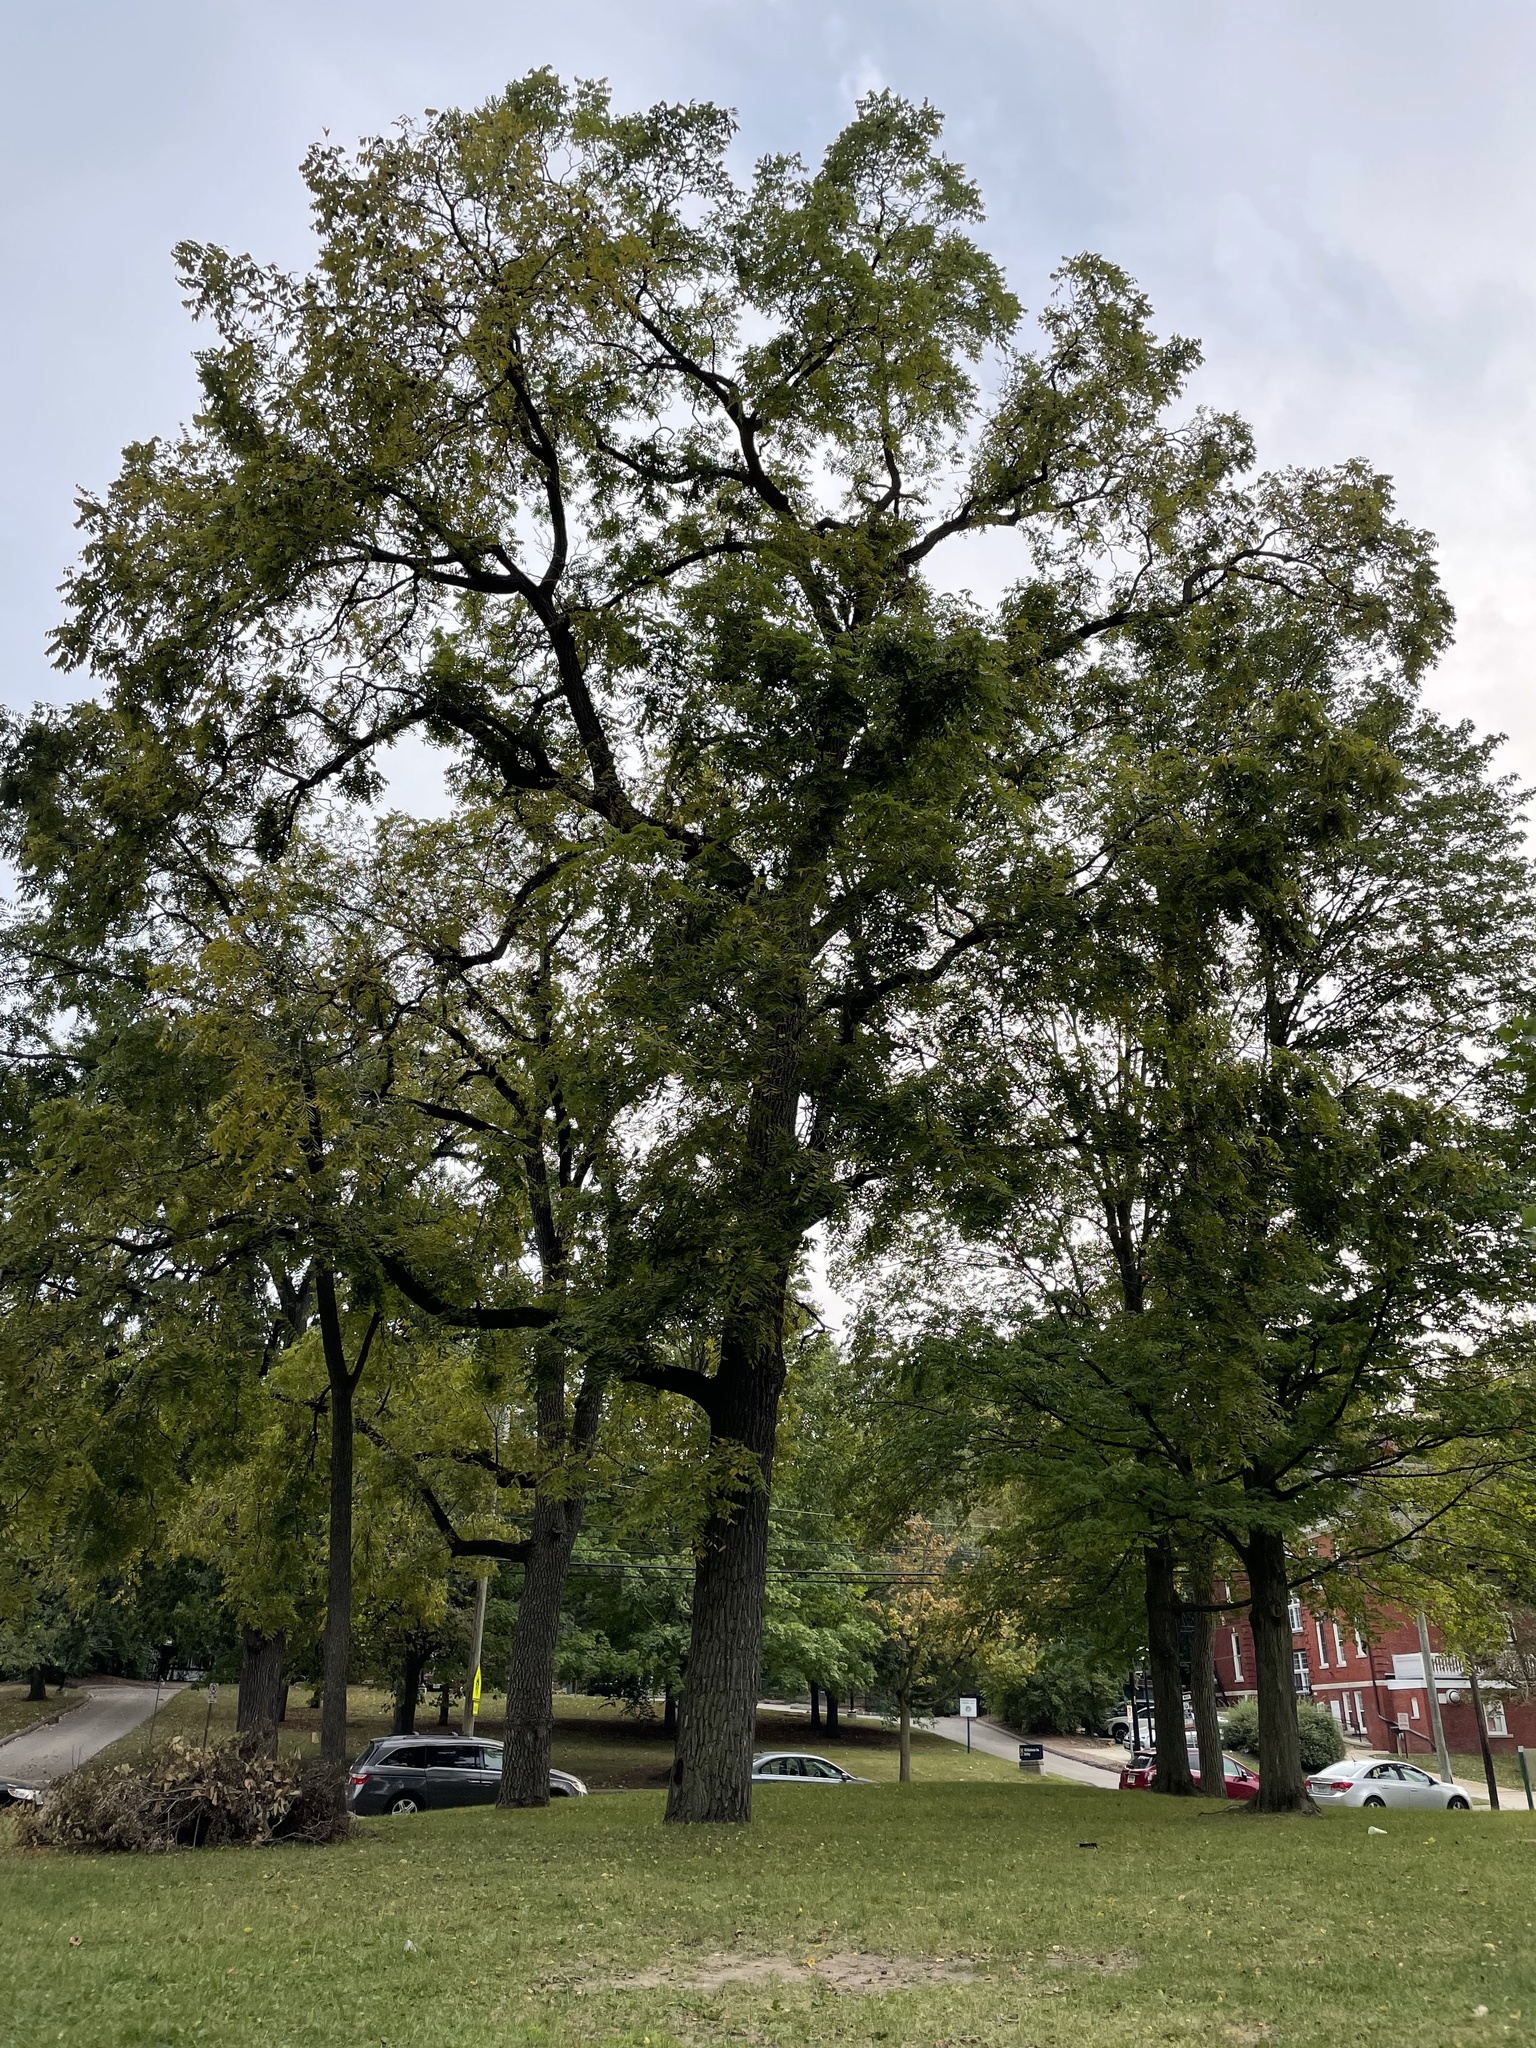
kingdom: Plantae
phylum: Tracheophyta
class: Magnoliopsida
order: Fagales
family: Juglandaceae
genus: Juglans
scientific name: Juglans nigra
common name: Black walnut
